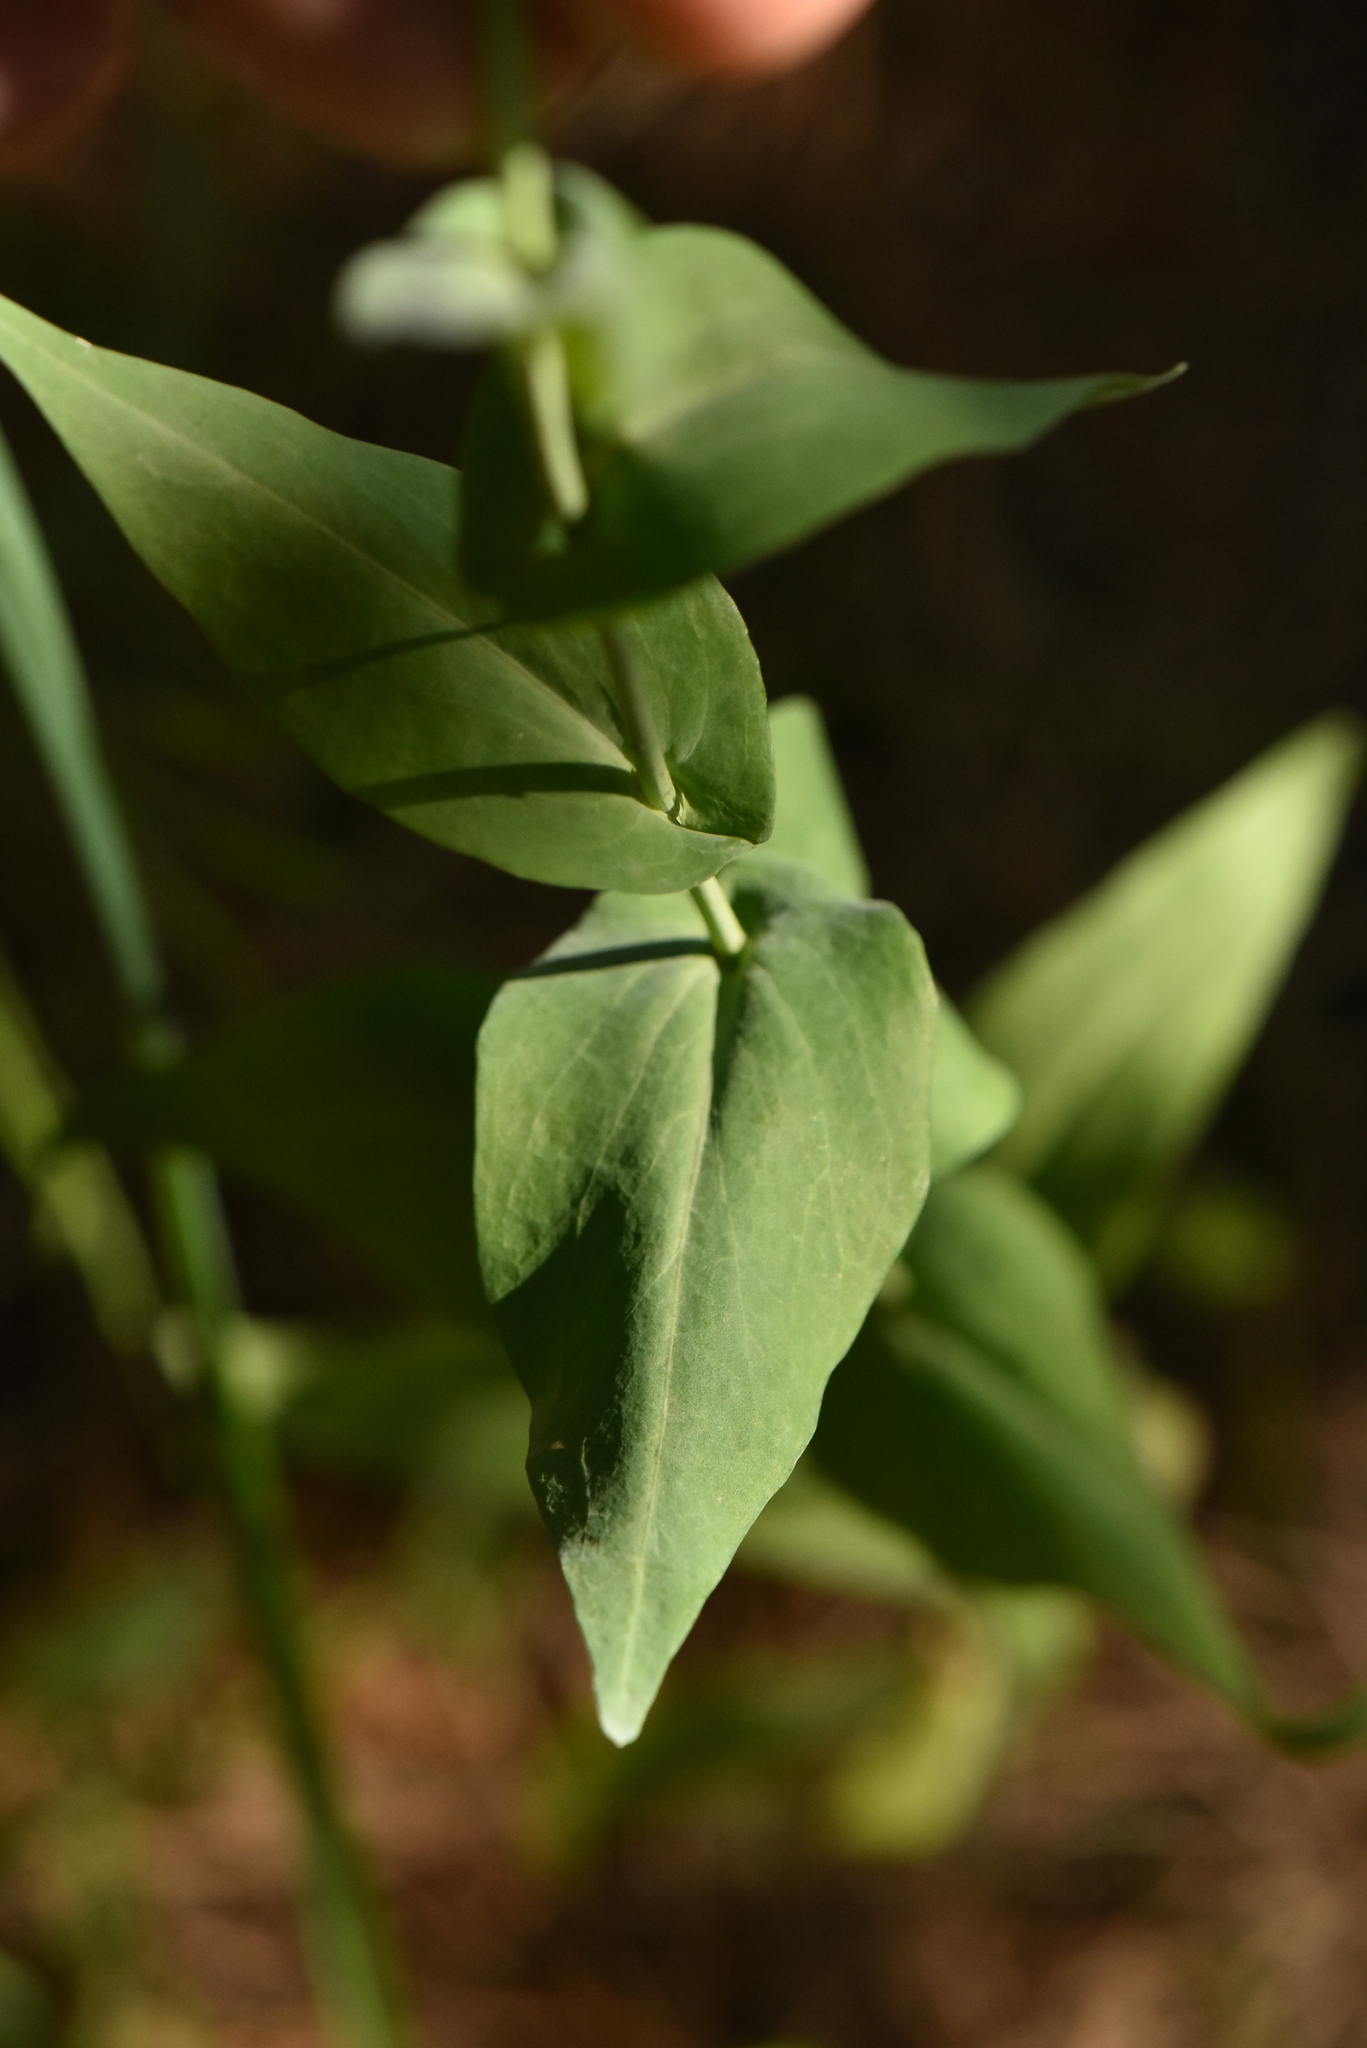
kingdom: Plantae
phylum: Tracheophyta
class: Magnoliopsida
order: Brassicales
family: Brassicaceae
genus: Turritis
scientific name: Turritis glabra
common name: Tower rockcress
